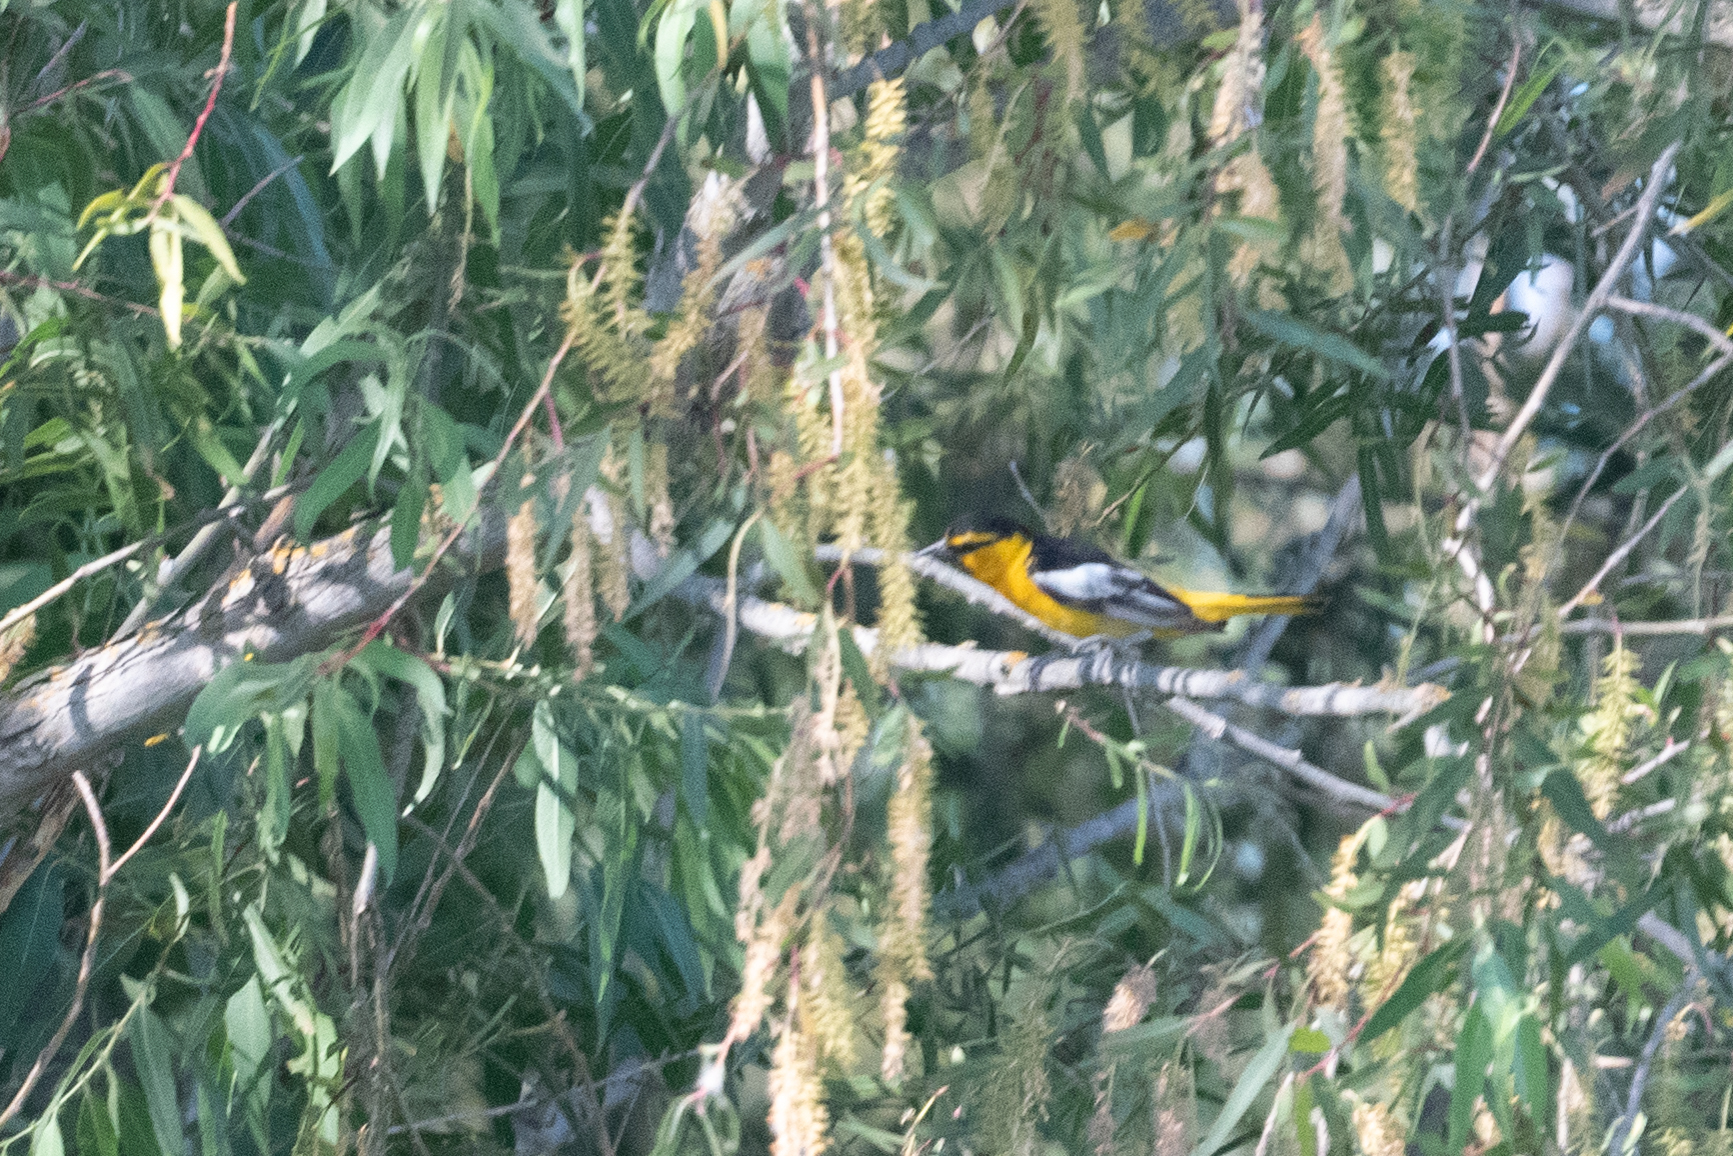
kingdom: Animalia
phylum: Chordata
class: Aves
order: Passeriformes
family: Icteridae
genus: Icterus
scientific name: Icterus bullockii
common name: Bullock's oriole
